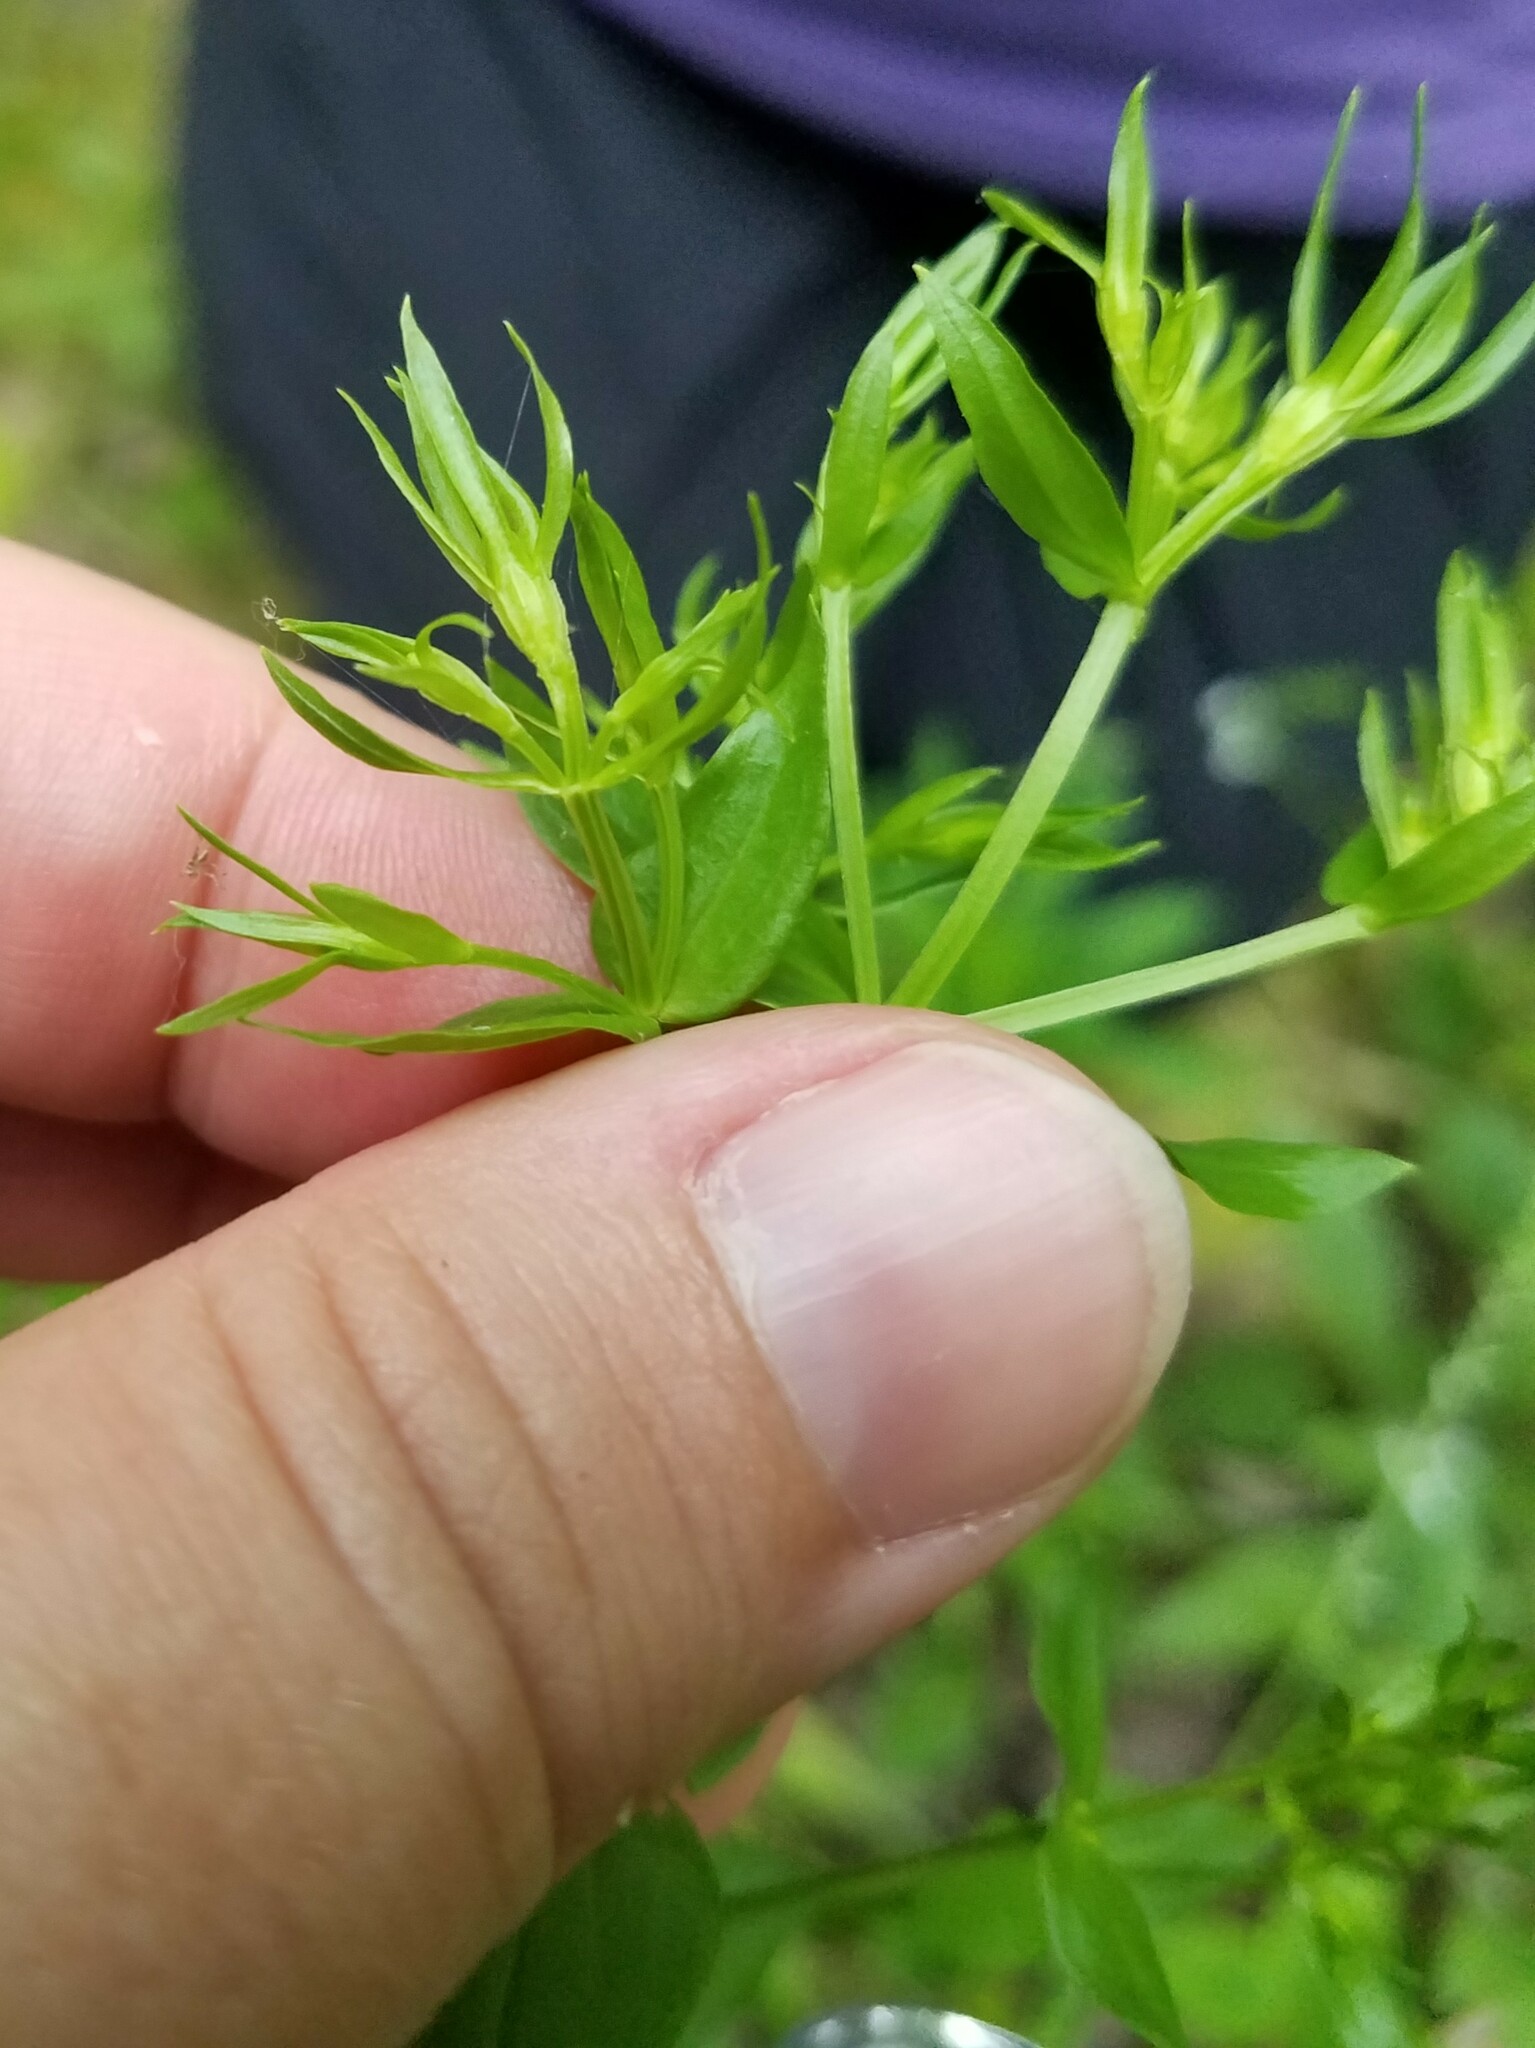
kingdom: Plantae
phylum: Tracheophyta
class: Magnoliopsida
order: Gentianales
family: Gentianaceae
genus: Sabatia
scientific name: Sabatia angularis
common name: Rose-pink
